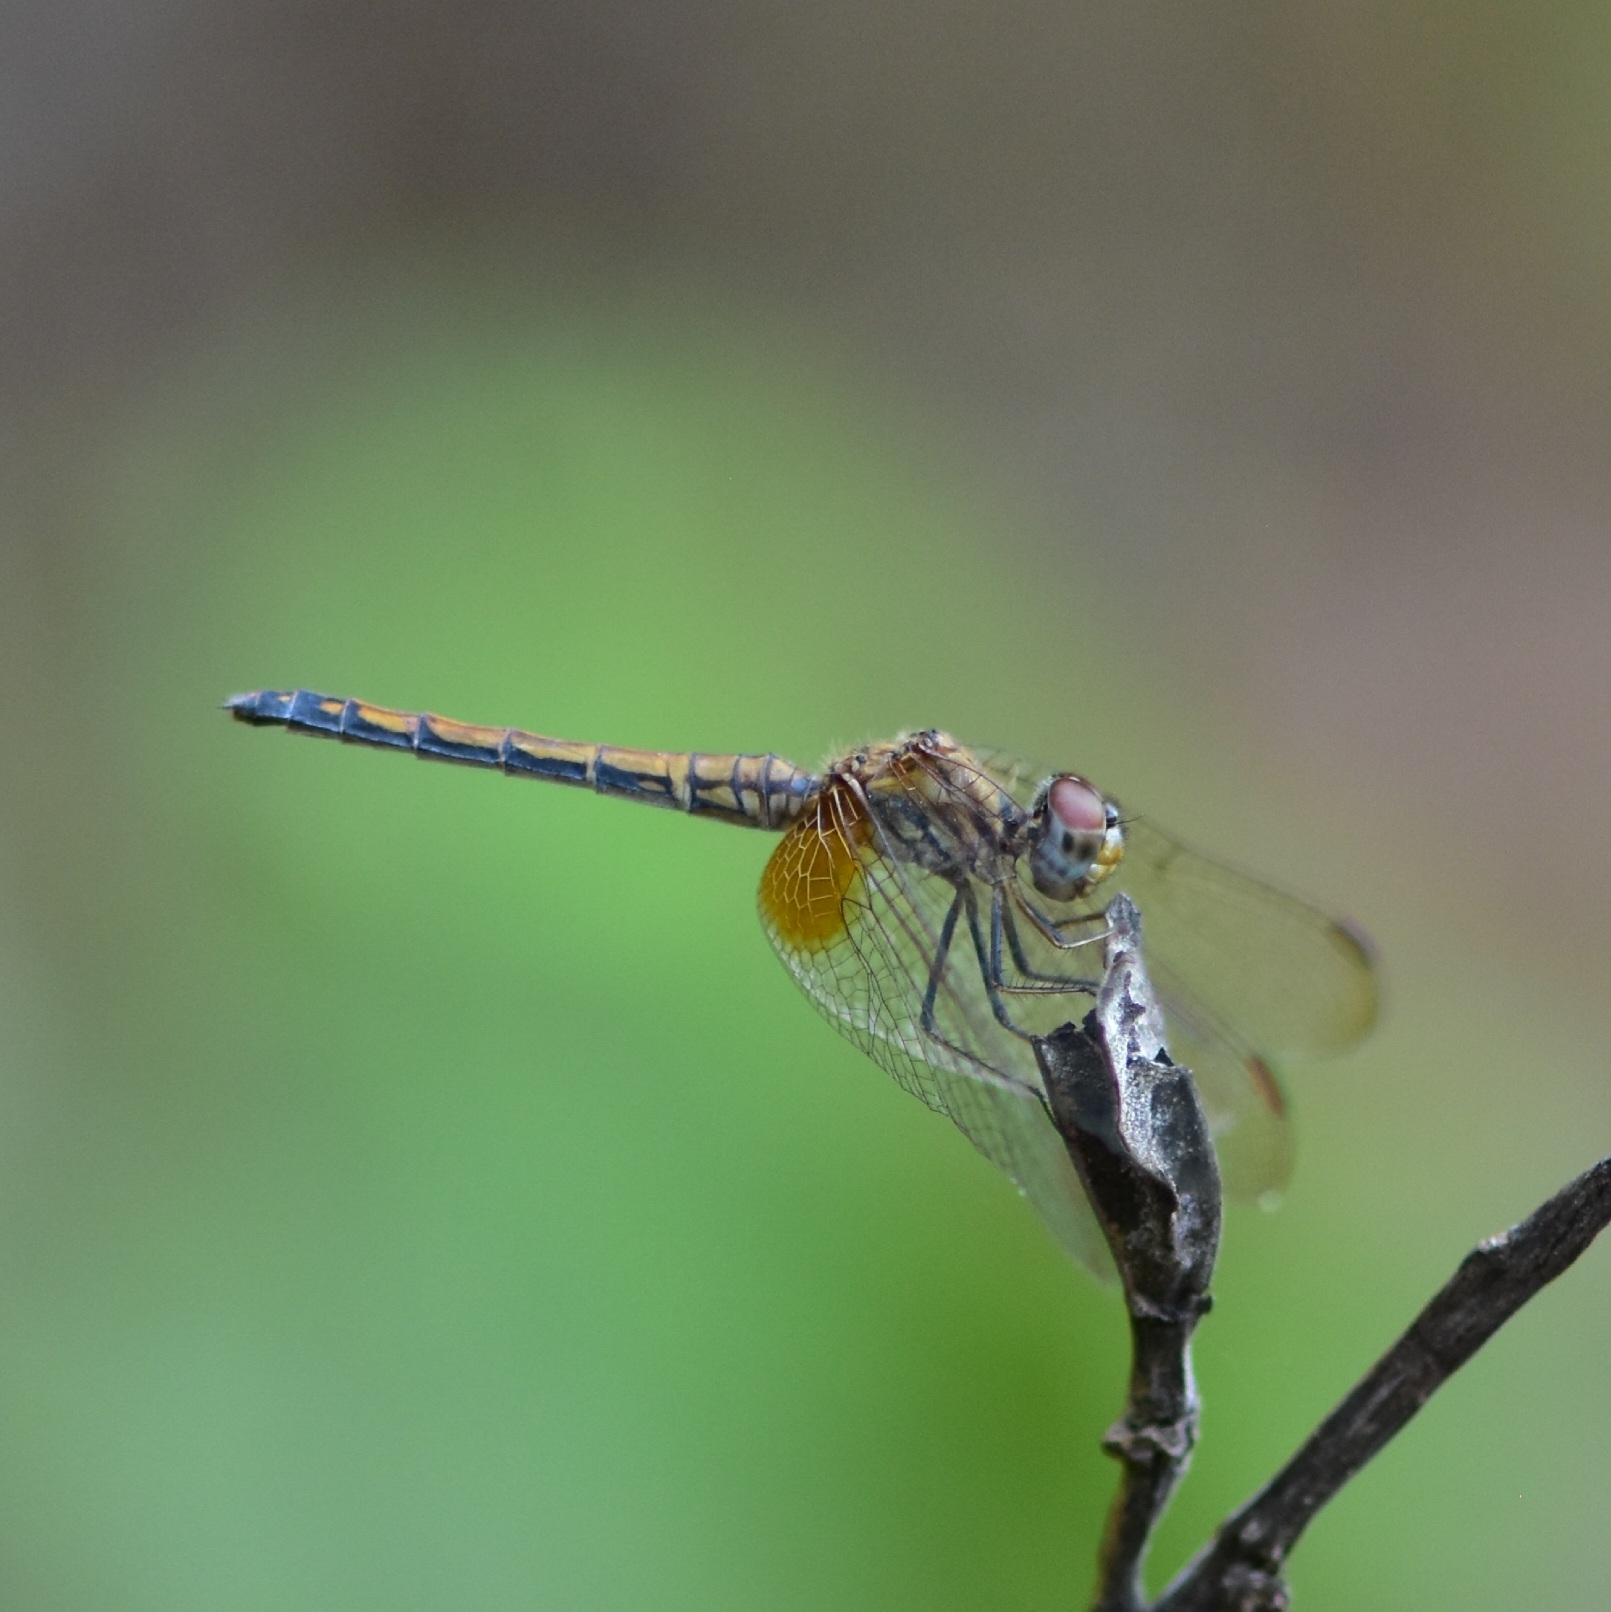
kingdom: Animalia
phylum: Arthropoda
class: Insecta
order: Odonata
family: Libellulidae
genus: Trithemis
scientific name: Trithemis aurora
